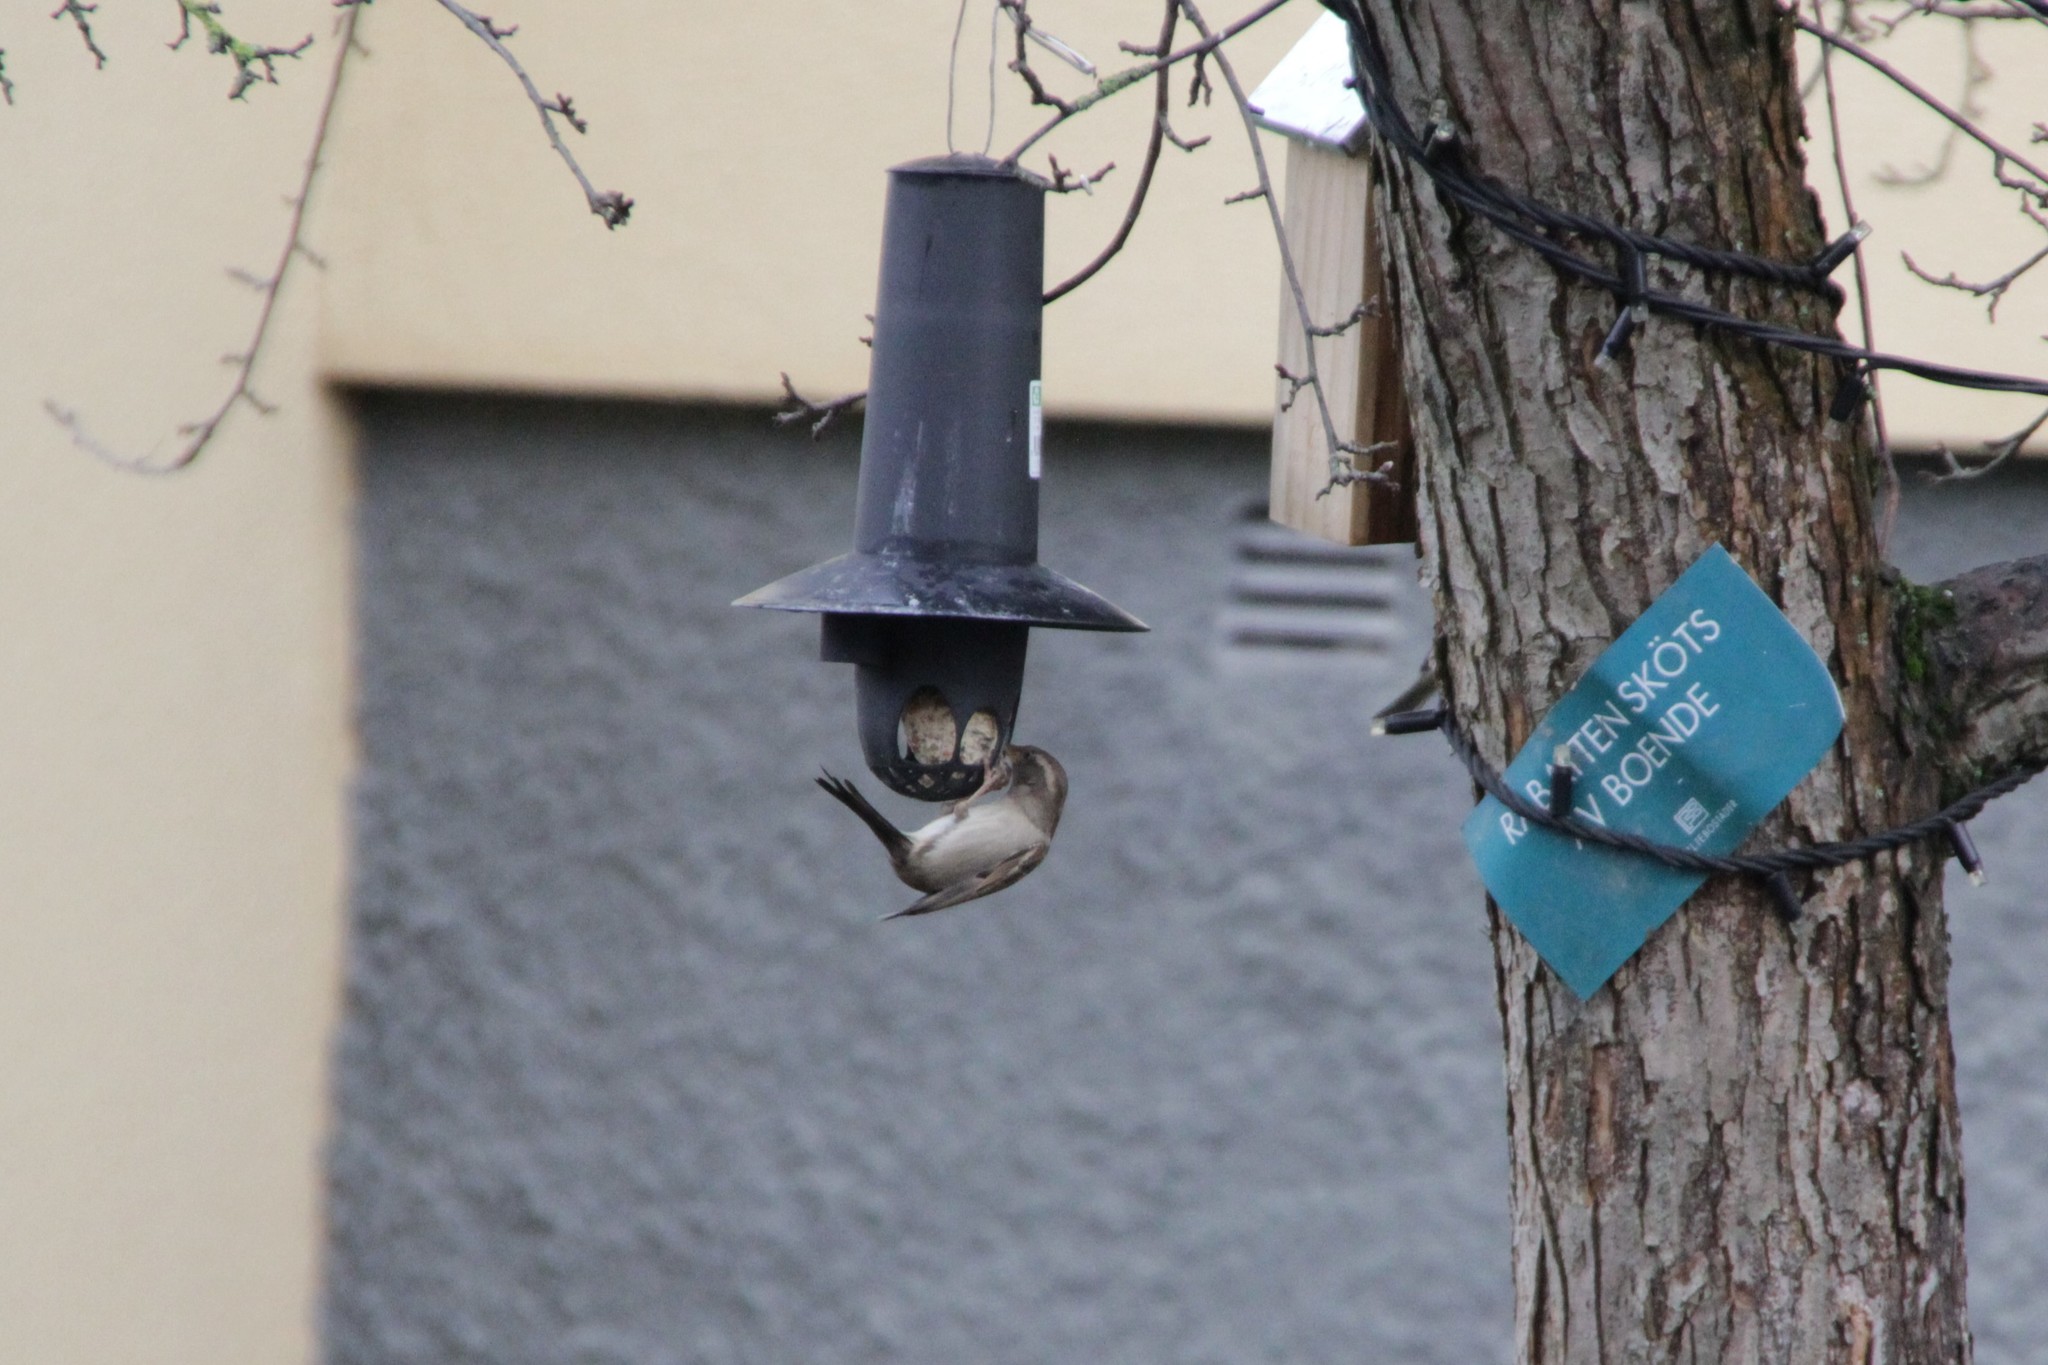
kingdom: Animalia
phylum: Chordata
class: Aves
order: Passeriformes
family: Passeridae
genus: Passer
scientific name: Passer domesticus
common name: House sparrow
